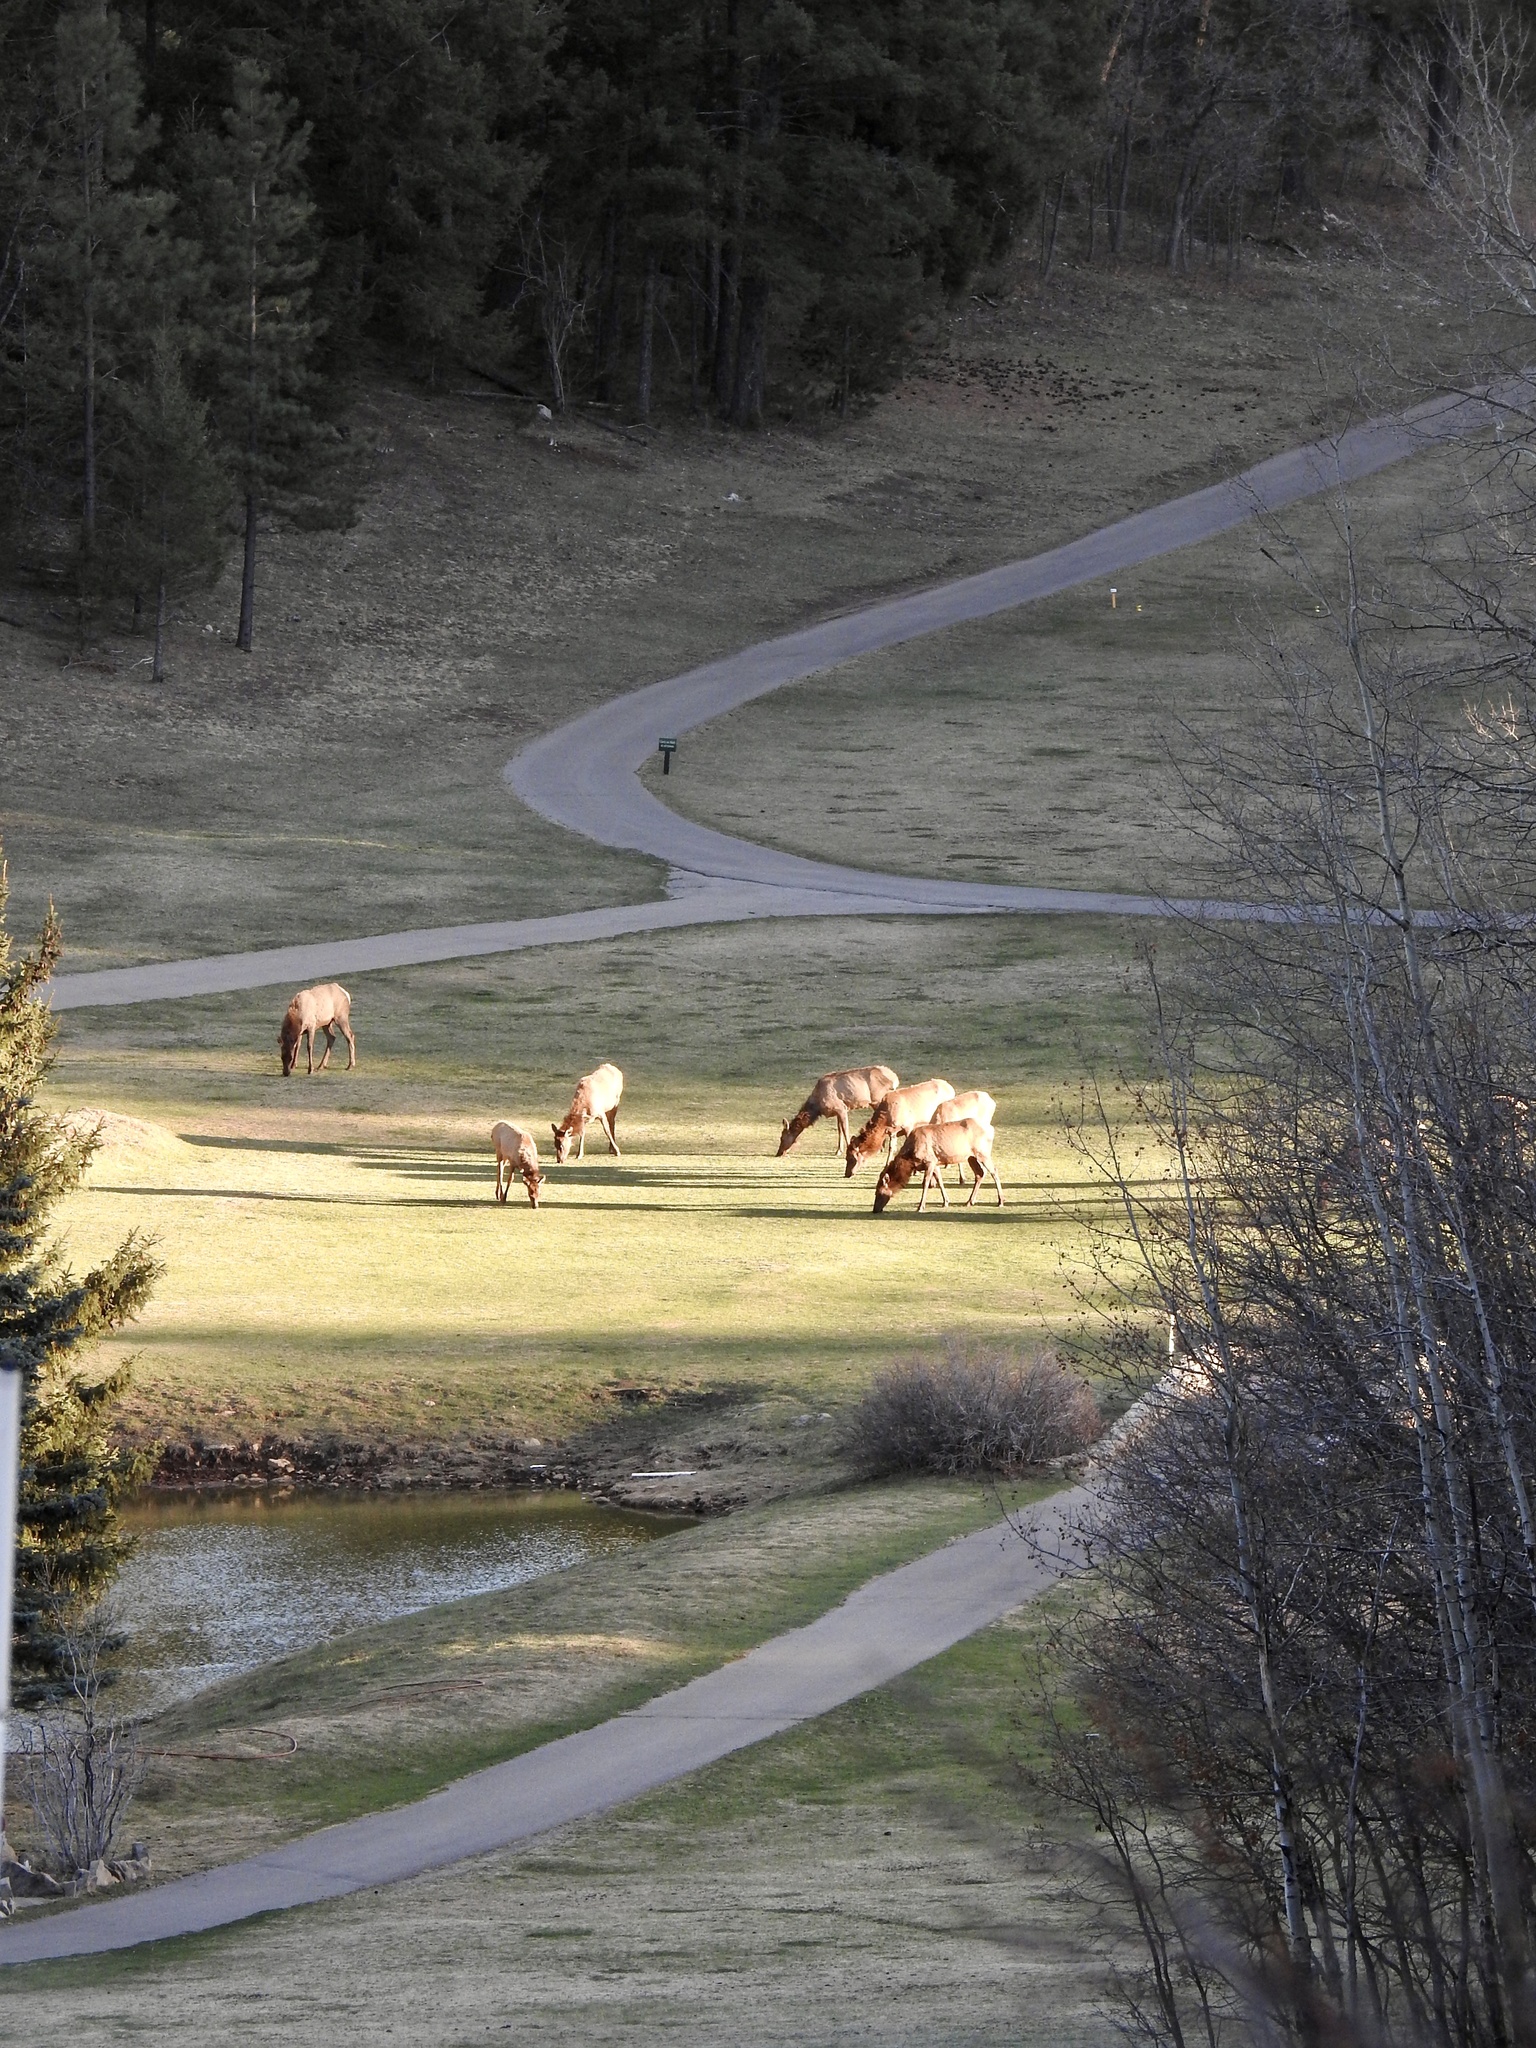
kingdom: Animalia
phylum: Chordata
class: Mammalia
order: Artiodactyla
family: Cervidae
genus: Cervus
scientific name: Cervus elaphus
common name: Red deer
